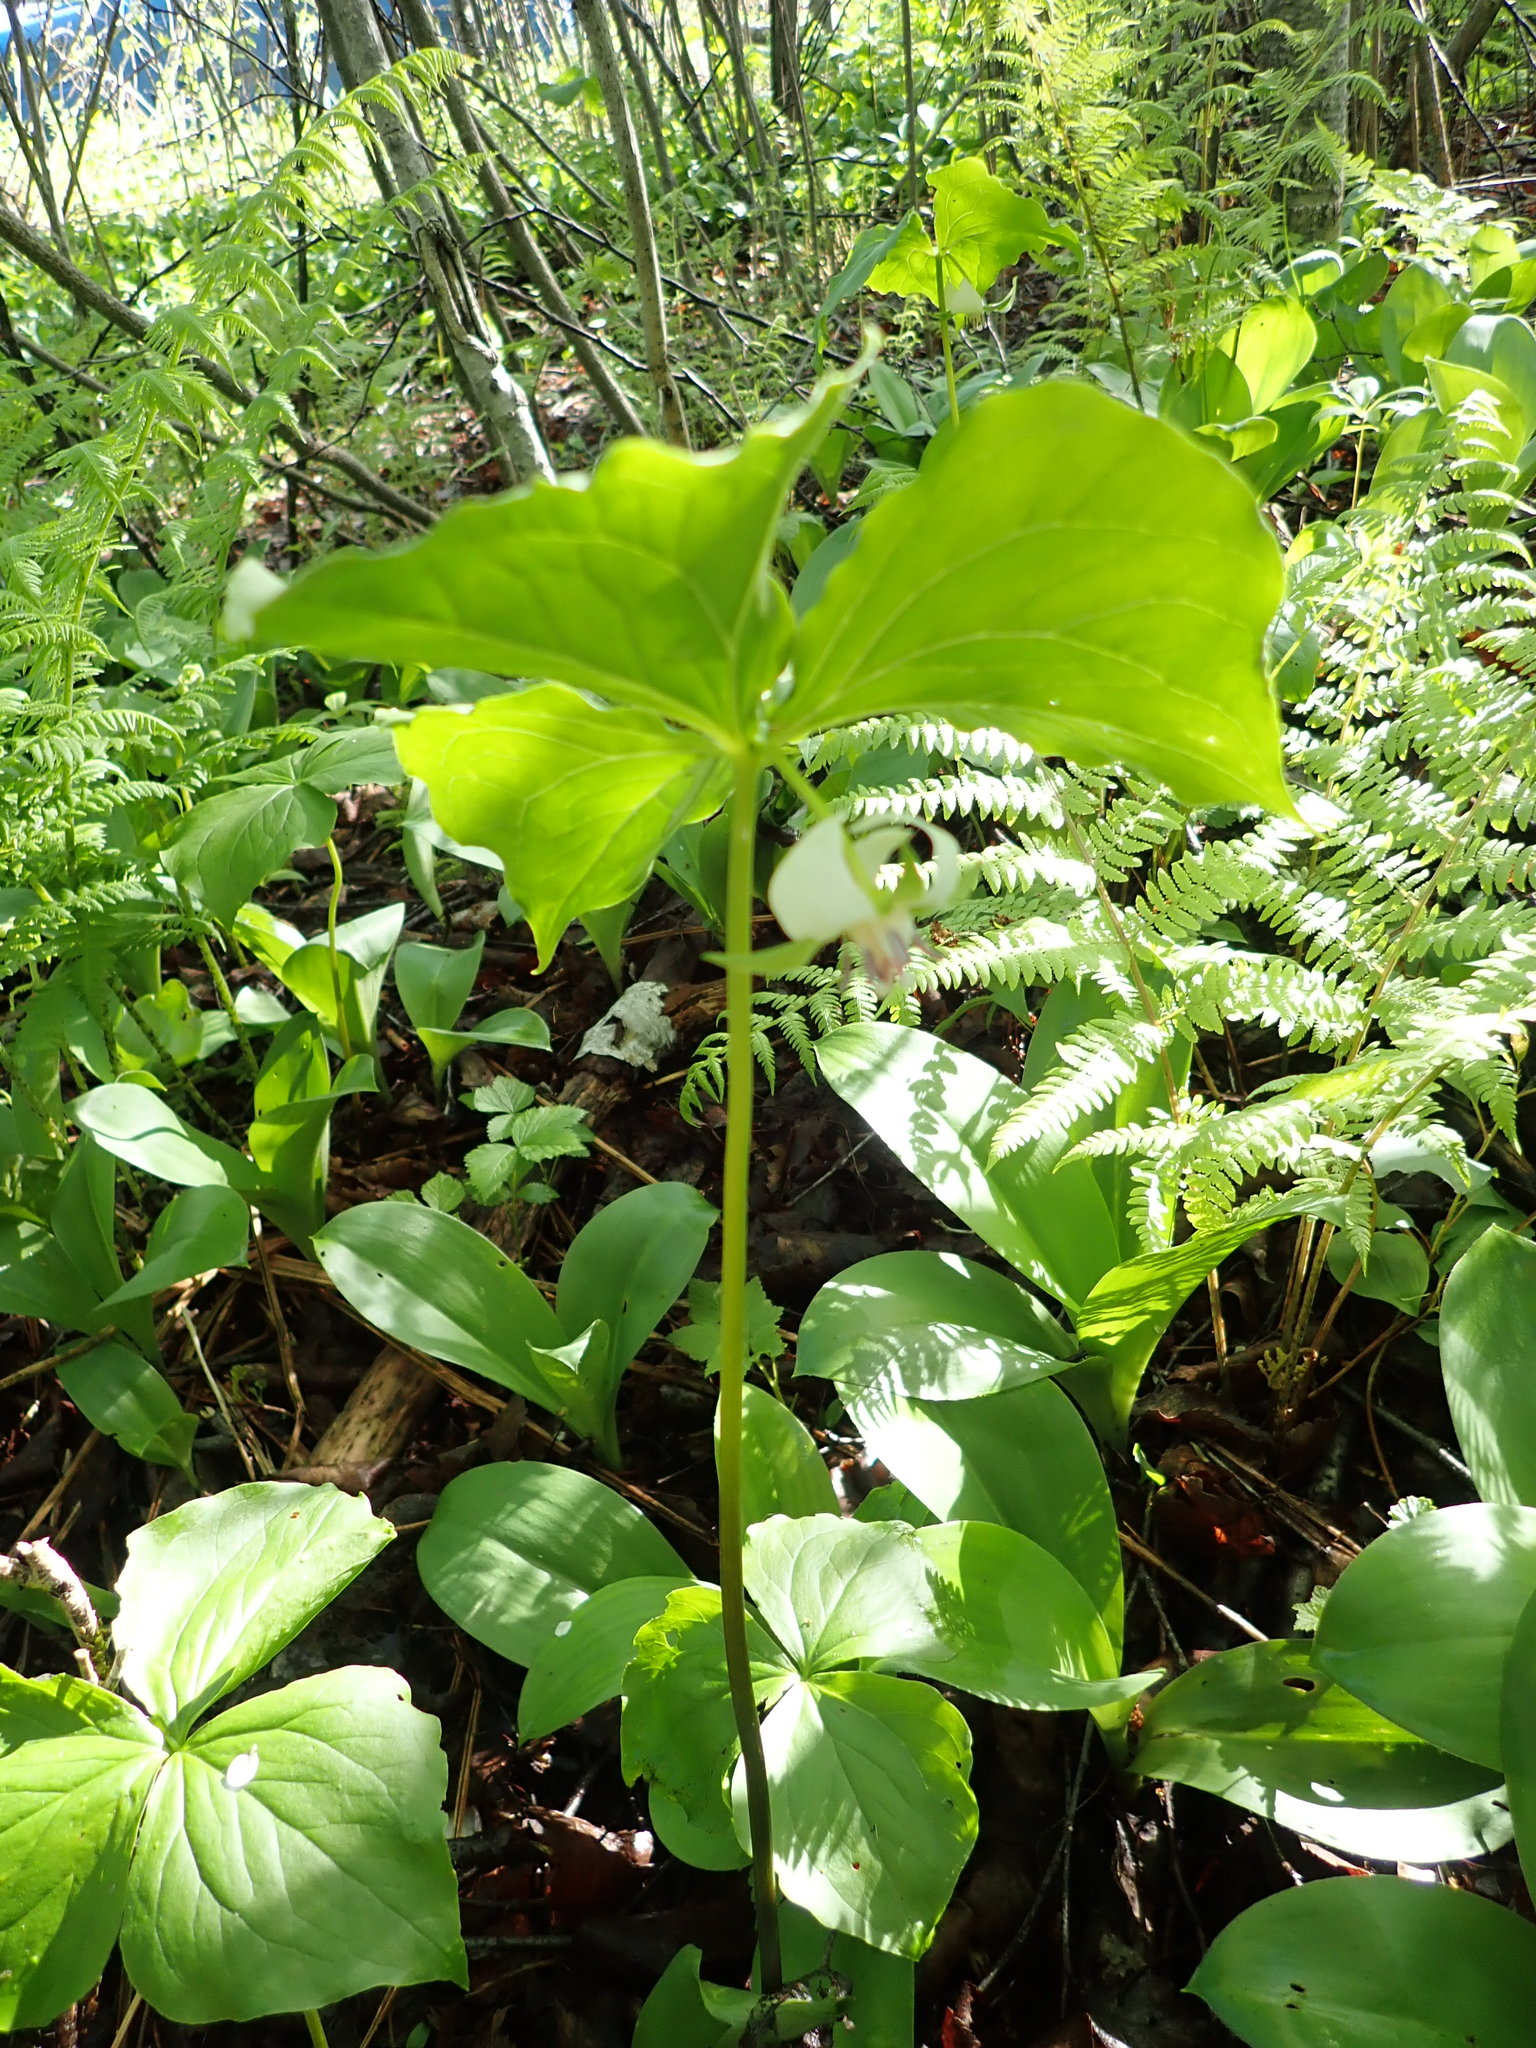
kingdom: Plantae
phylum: Tracheophyta
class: Liliopsida
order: Liliales
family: Melanthiaceae
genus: Trillium
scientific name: Trillium cernuum
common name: Nodding trillium
